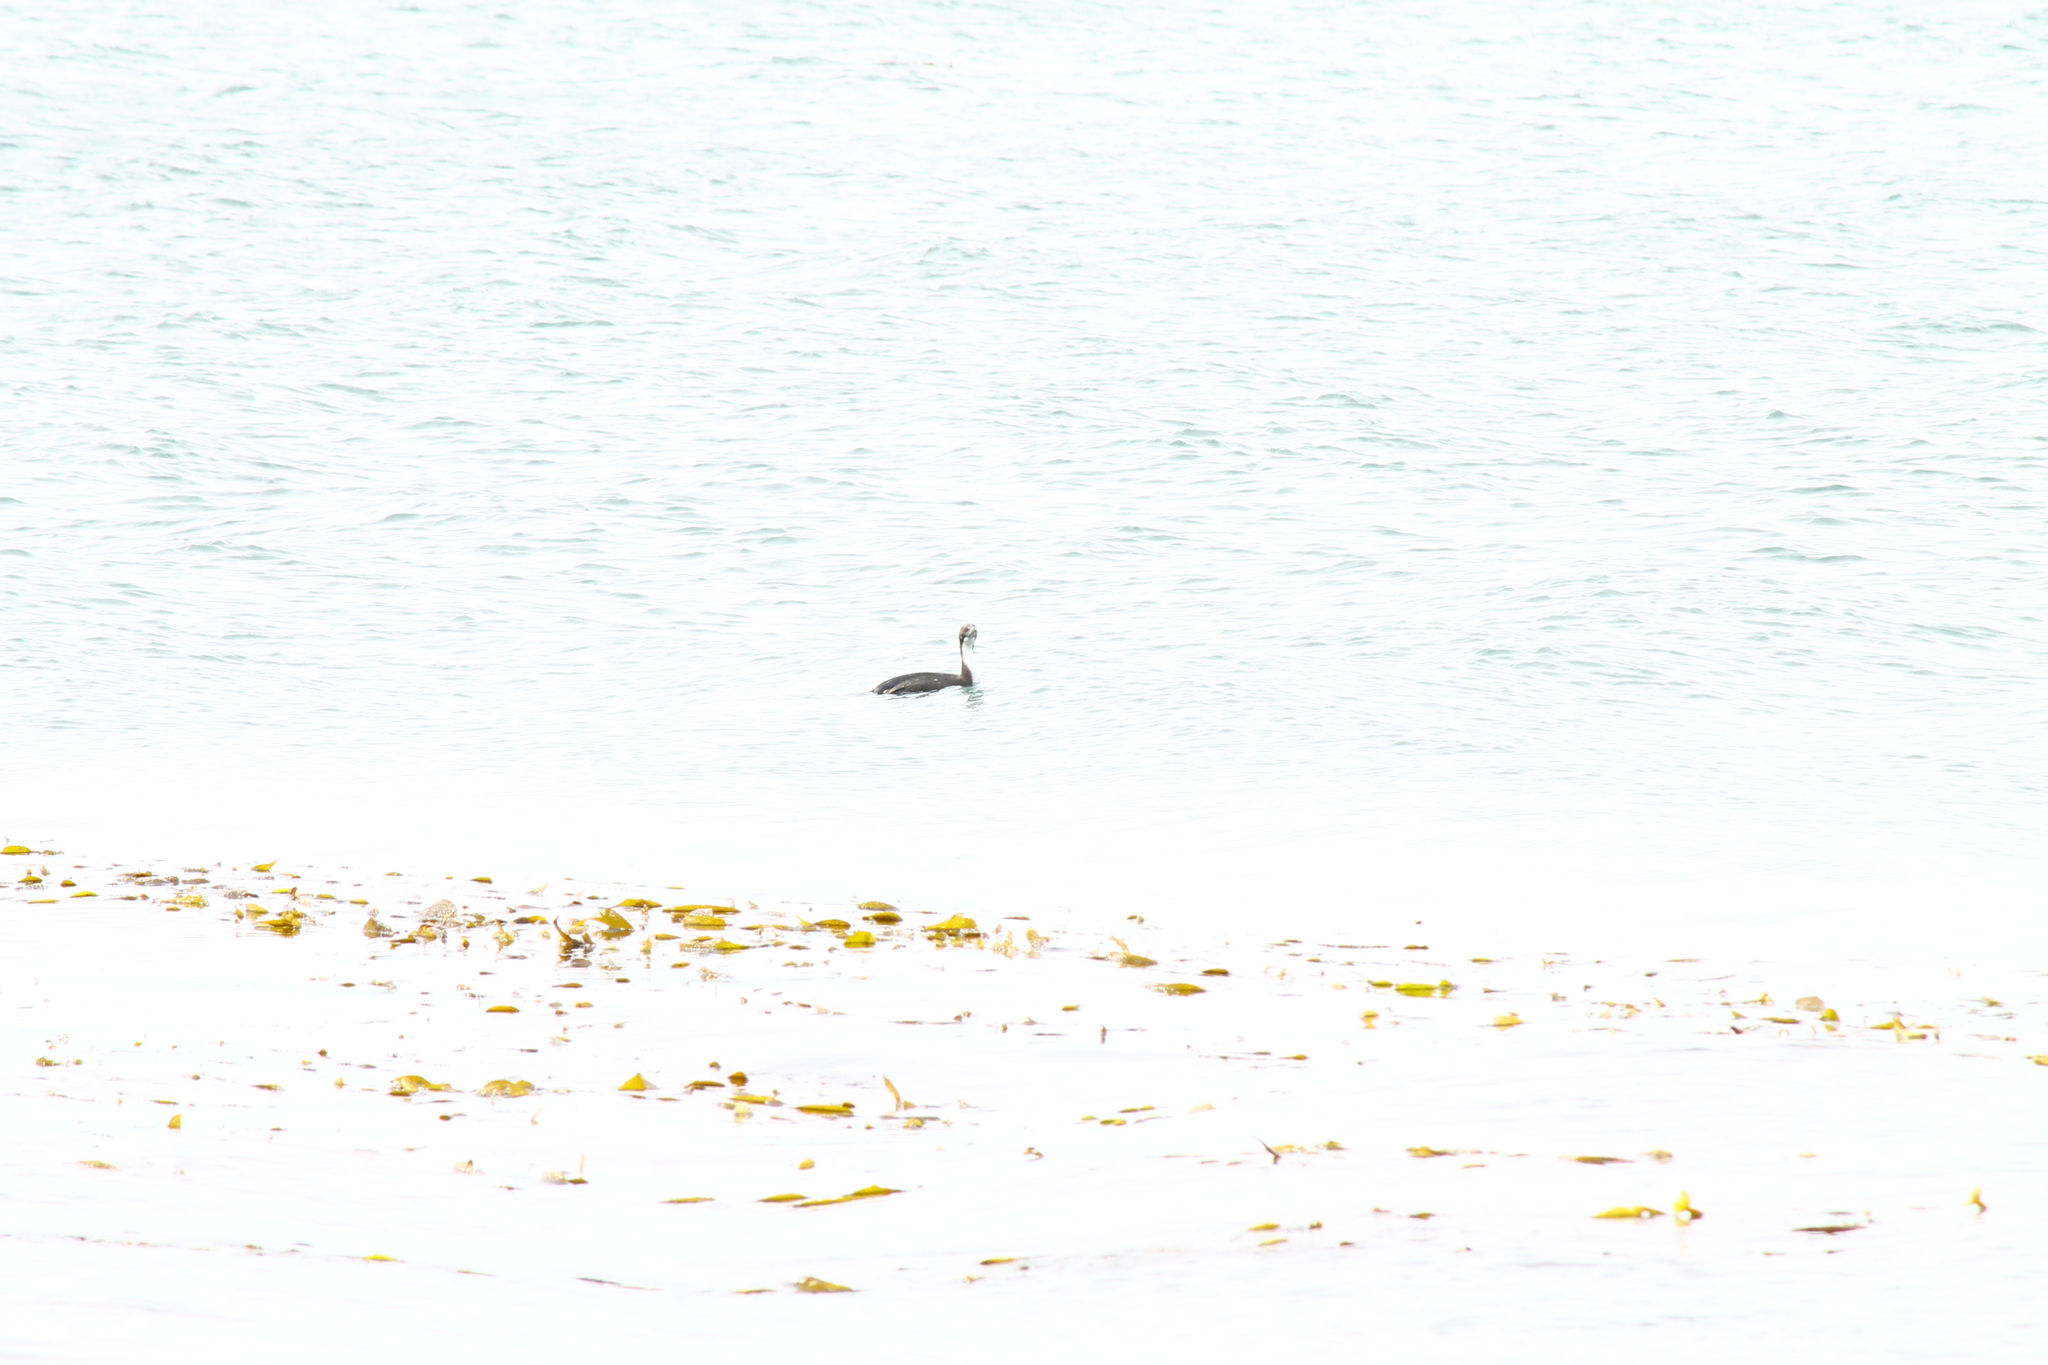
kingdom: Animalia
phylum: Chordata
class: Aves
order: Suliformes
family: Phalacrocoracidae
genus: Leucocarbo
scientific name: Leucocarbo atriceps
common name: Imperial shag
